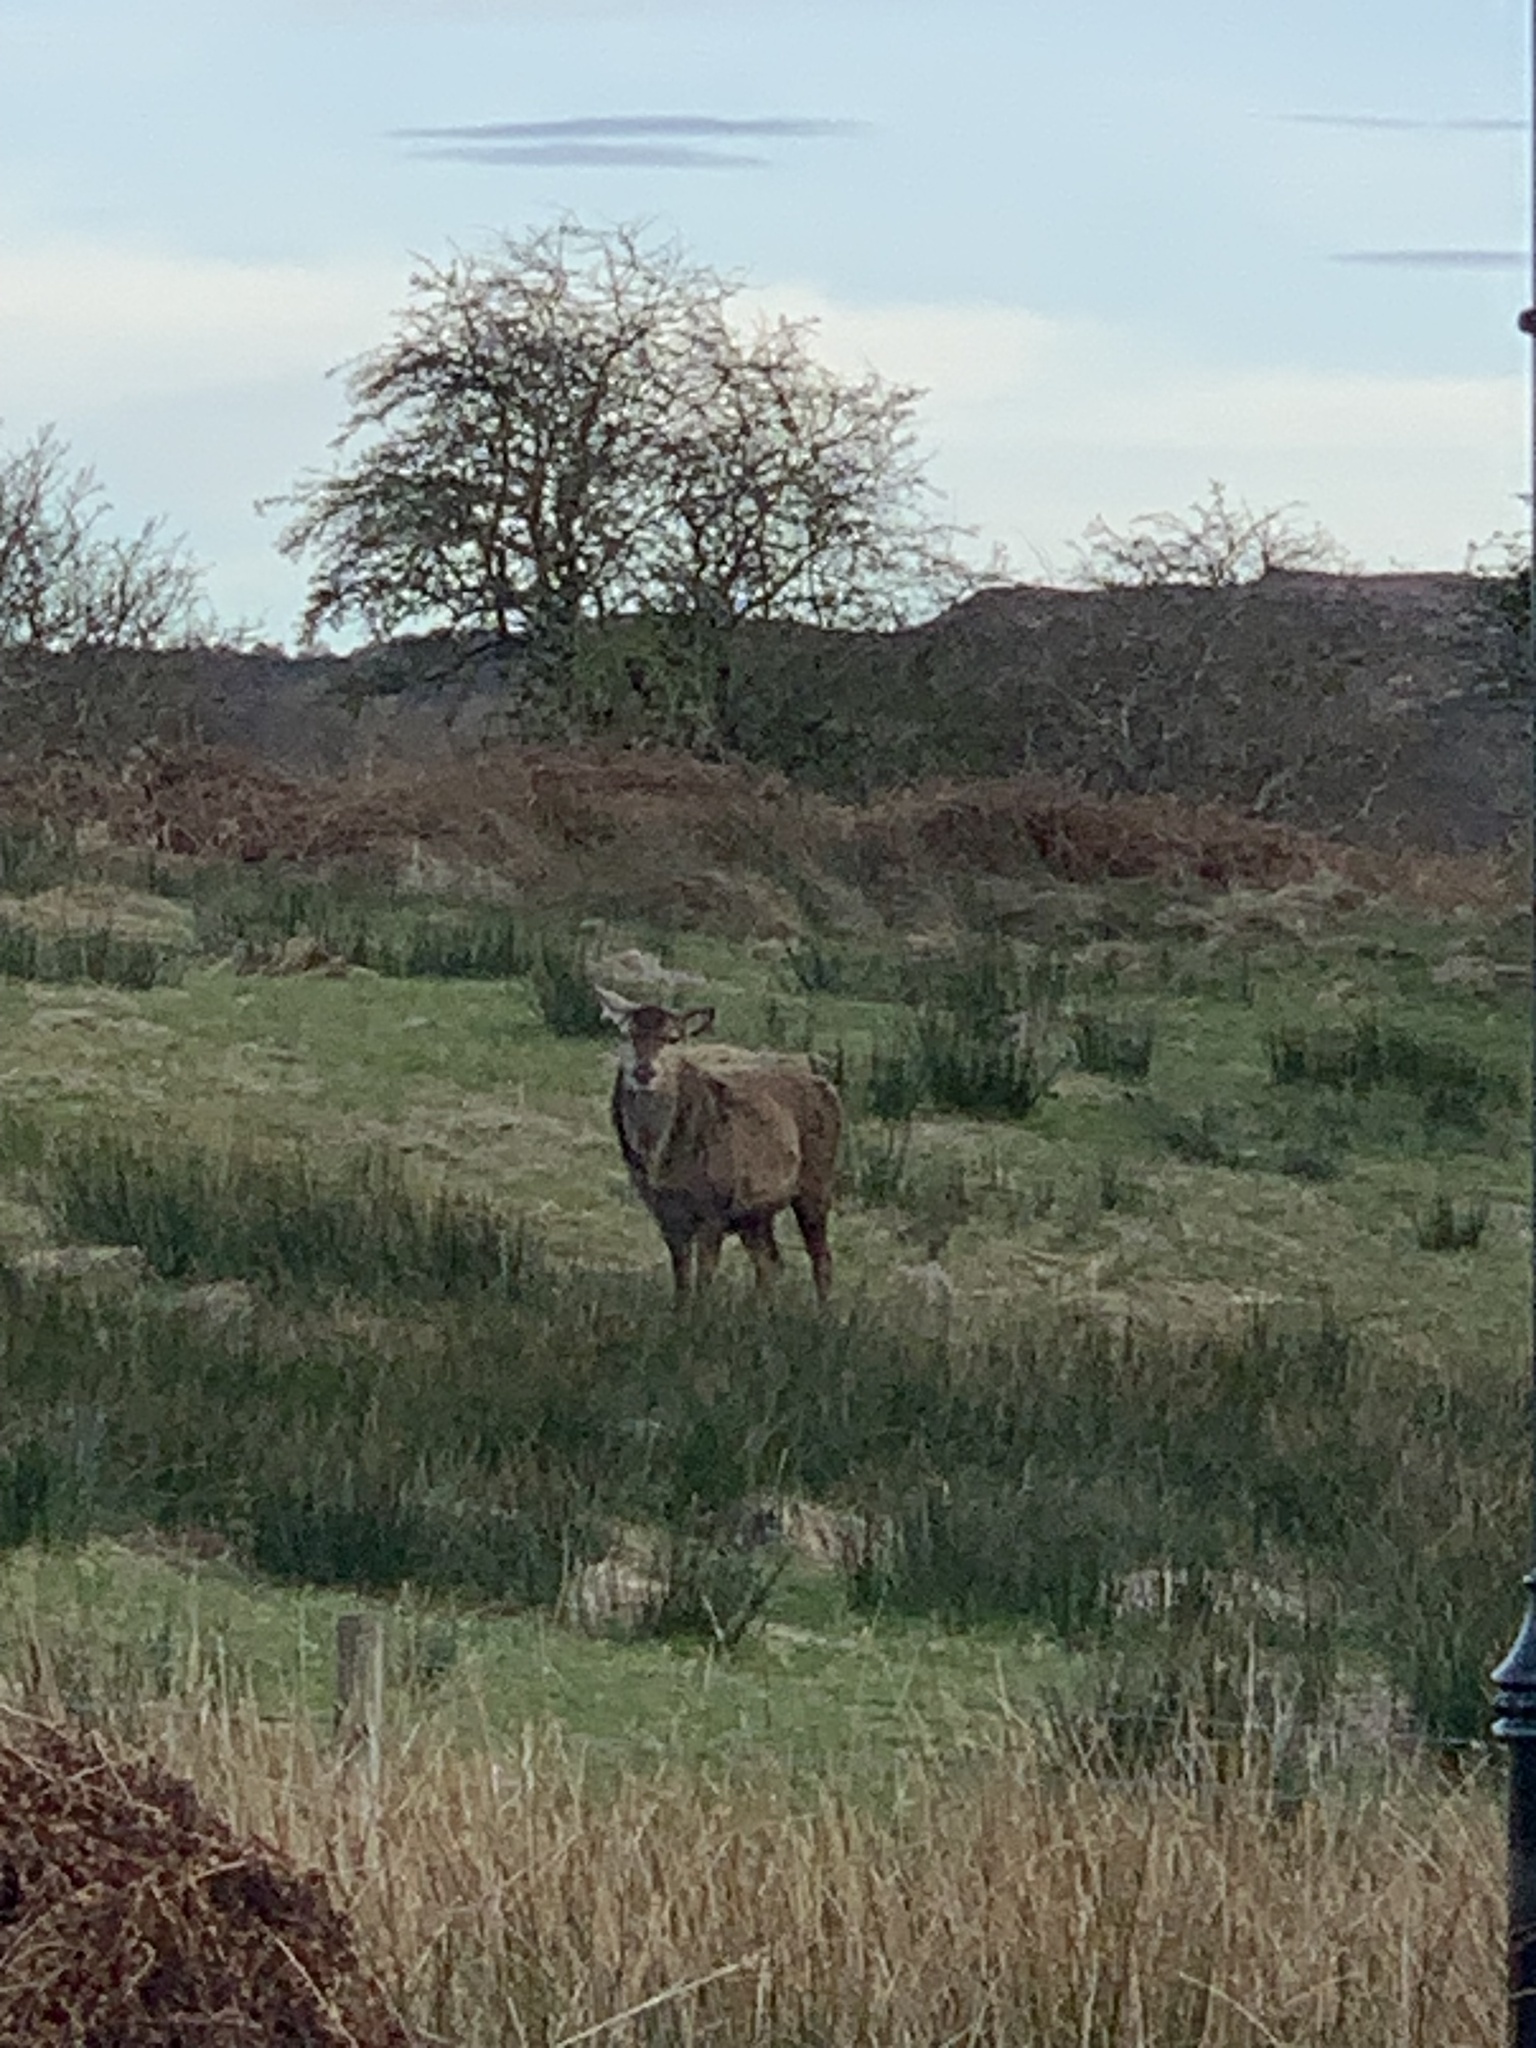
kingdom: Animalia
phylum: Chordata
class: Mammalia
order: Artiodactyla
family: Cervidae
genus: Cervus
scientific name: Cervus elaphus
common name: Red deer
